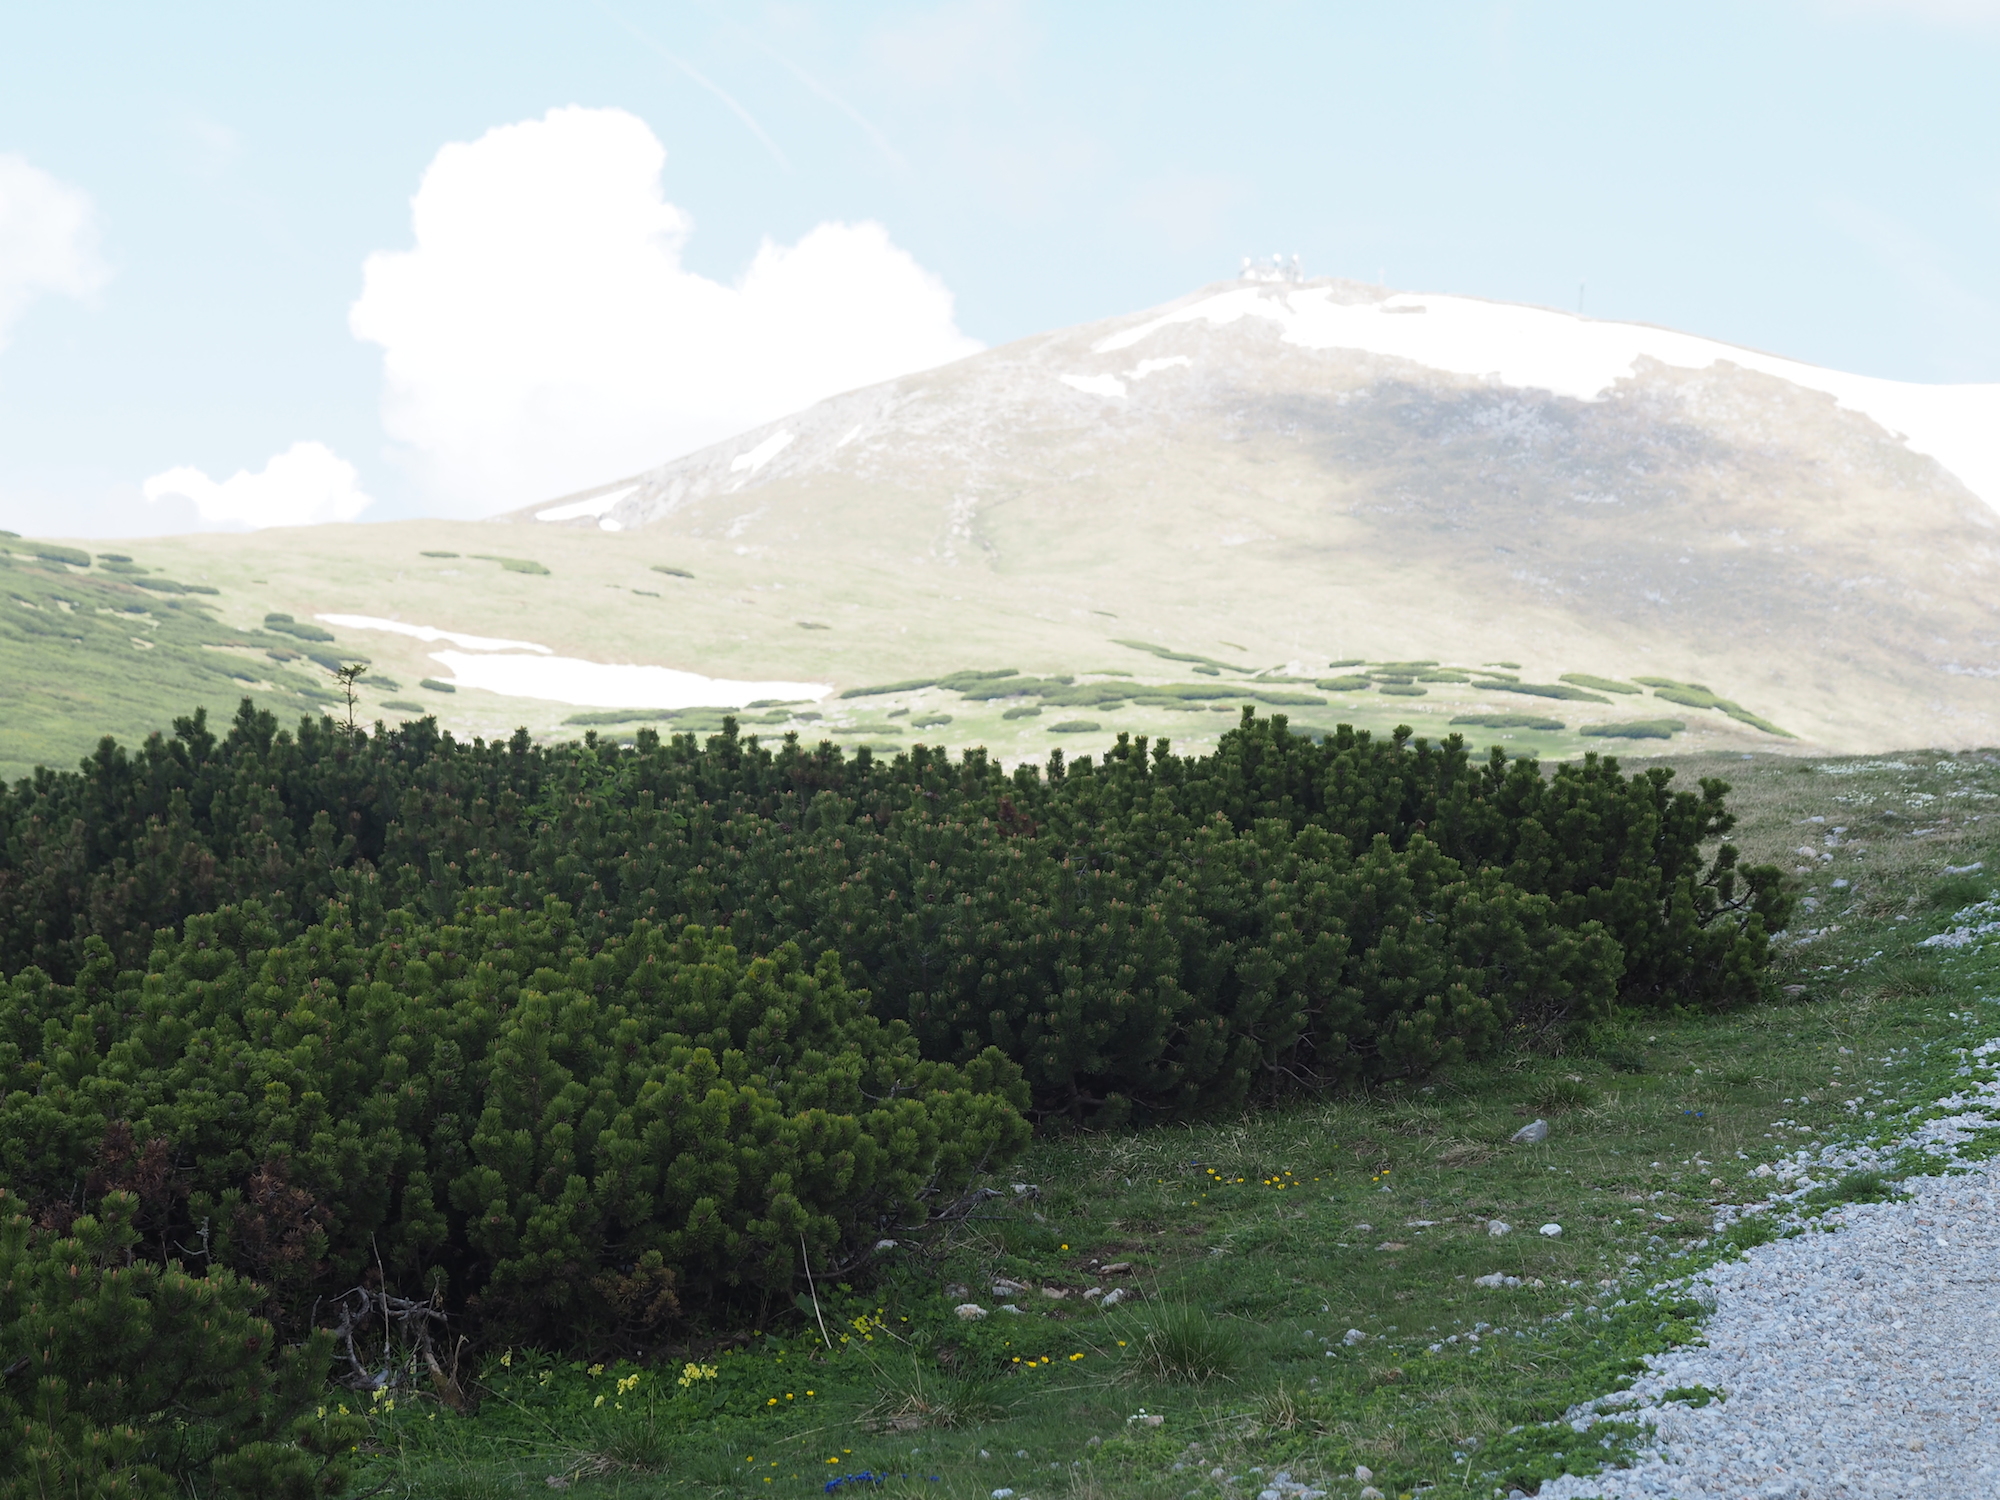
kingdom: Plantae
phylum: Tracheophyta
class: Pinopsida
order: Pinales
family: Pinaceae
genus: Pinus
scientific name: Pinus mugo
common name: Mugo pine
